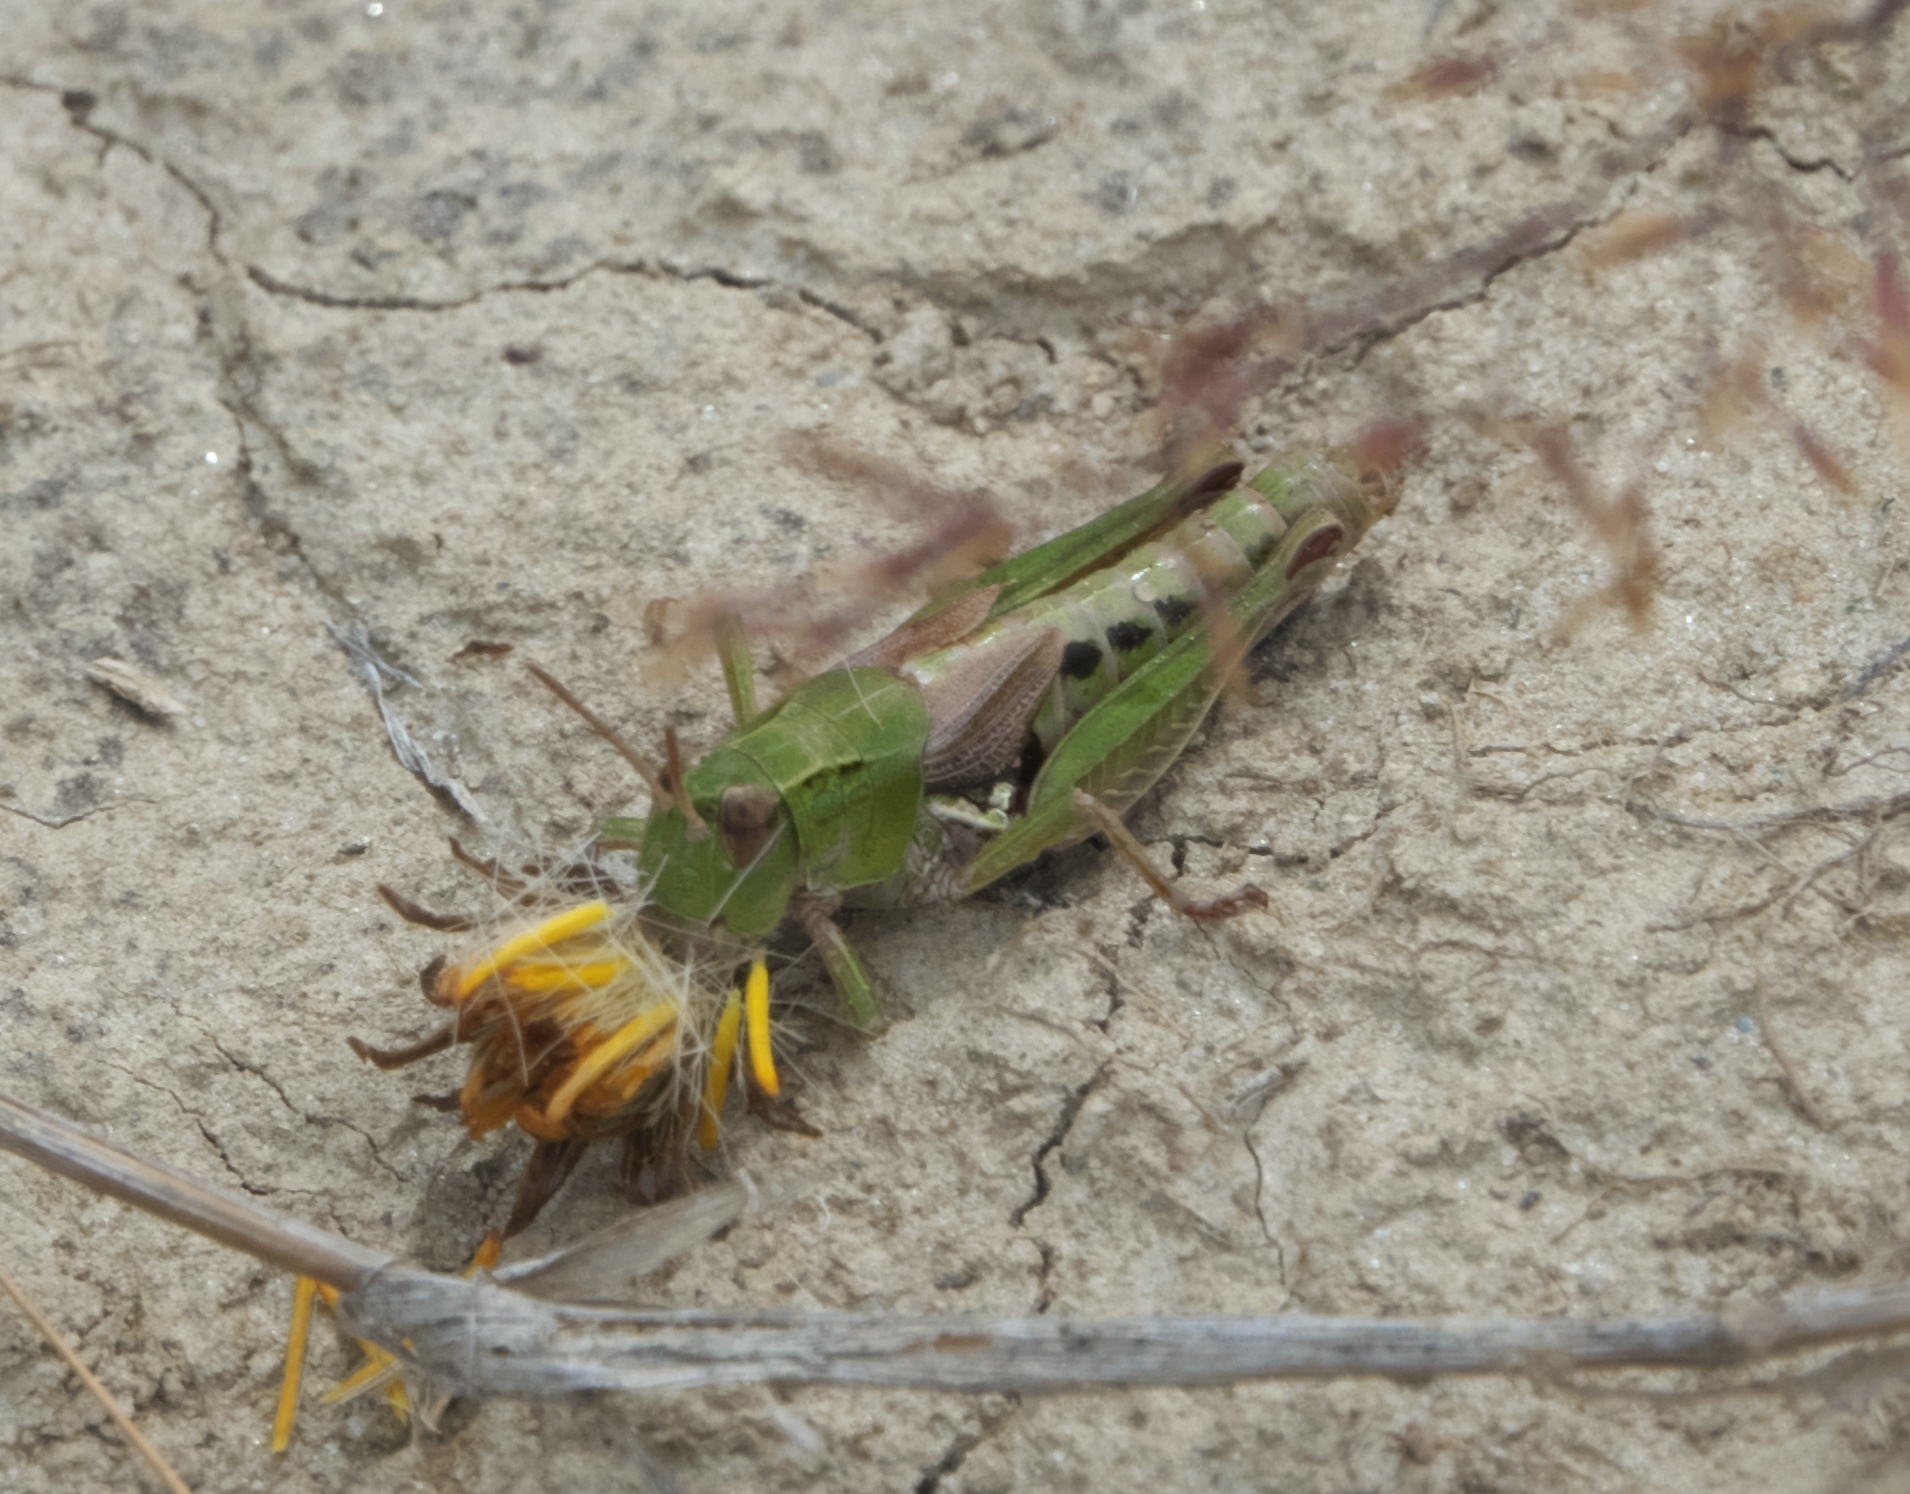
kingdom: Animalia
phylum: Arthropoda
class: Insecta
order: Orthoptera
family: Acrididae
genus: Phaulacridium
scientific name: Phaulacridium marginale
